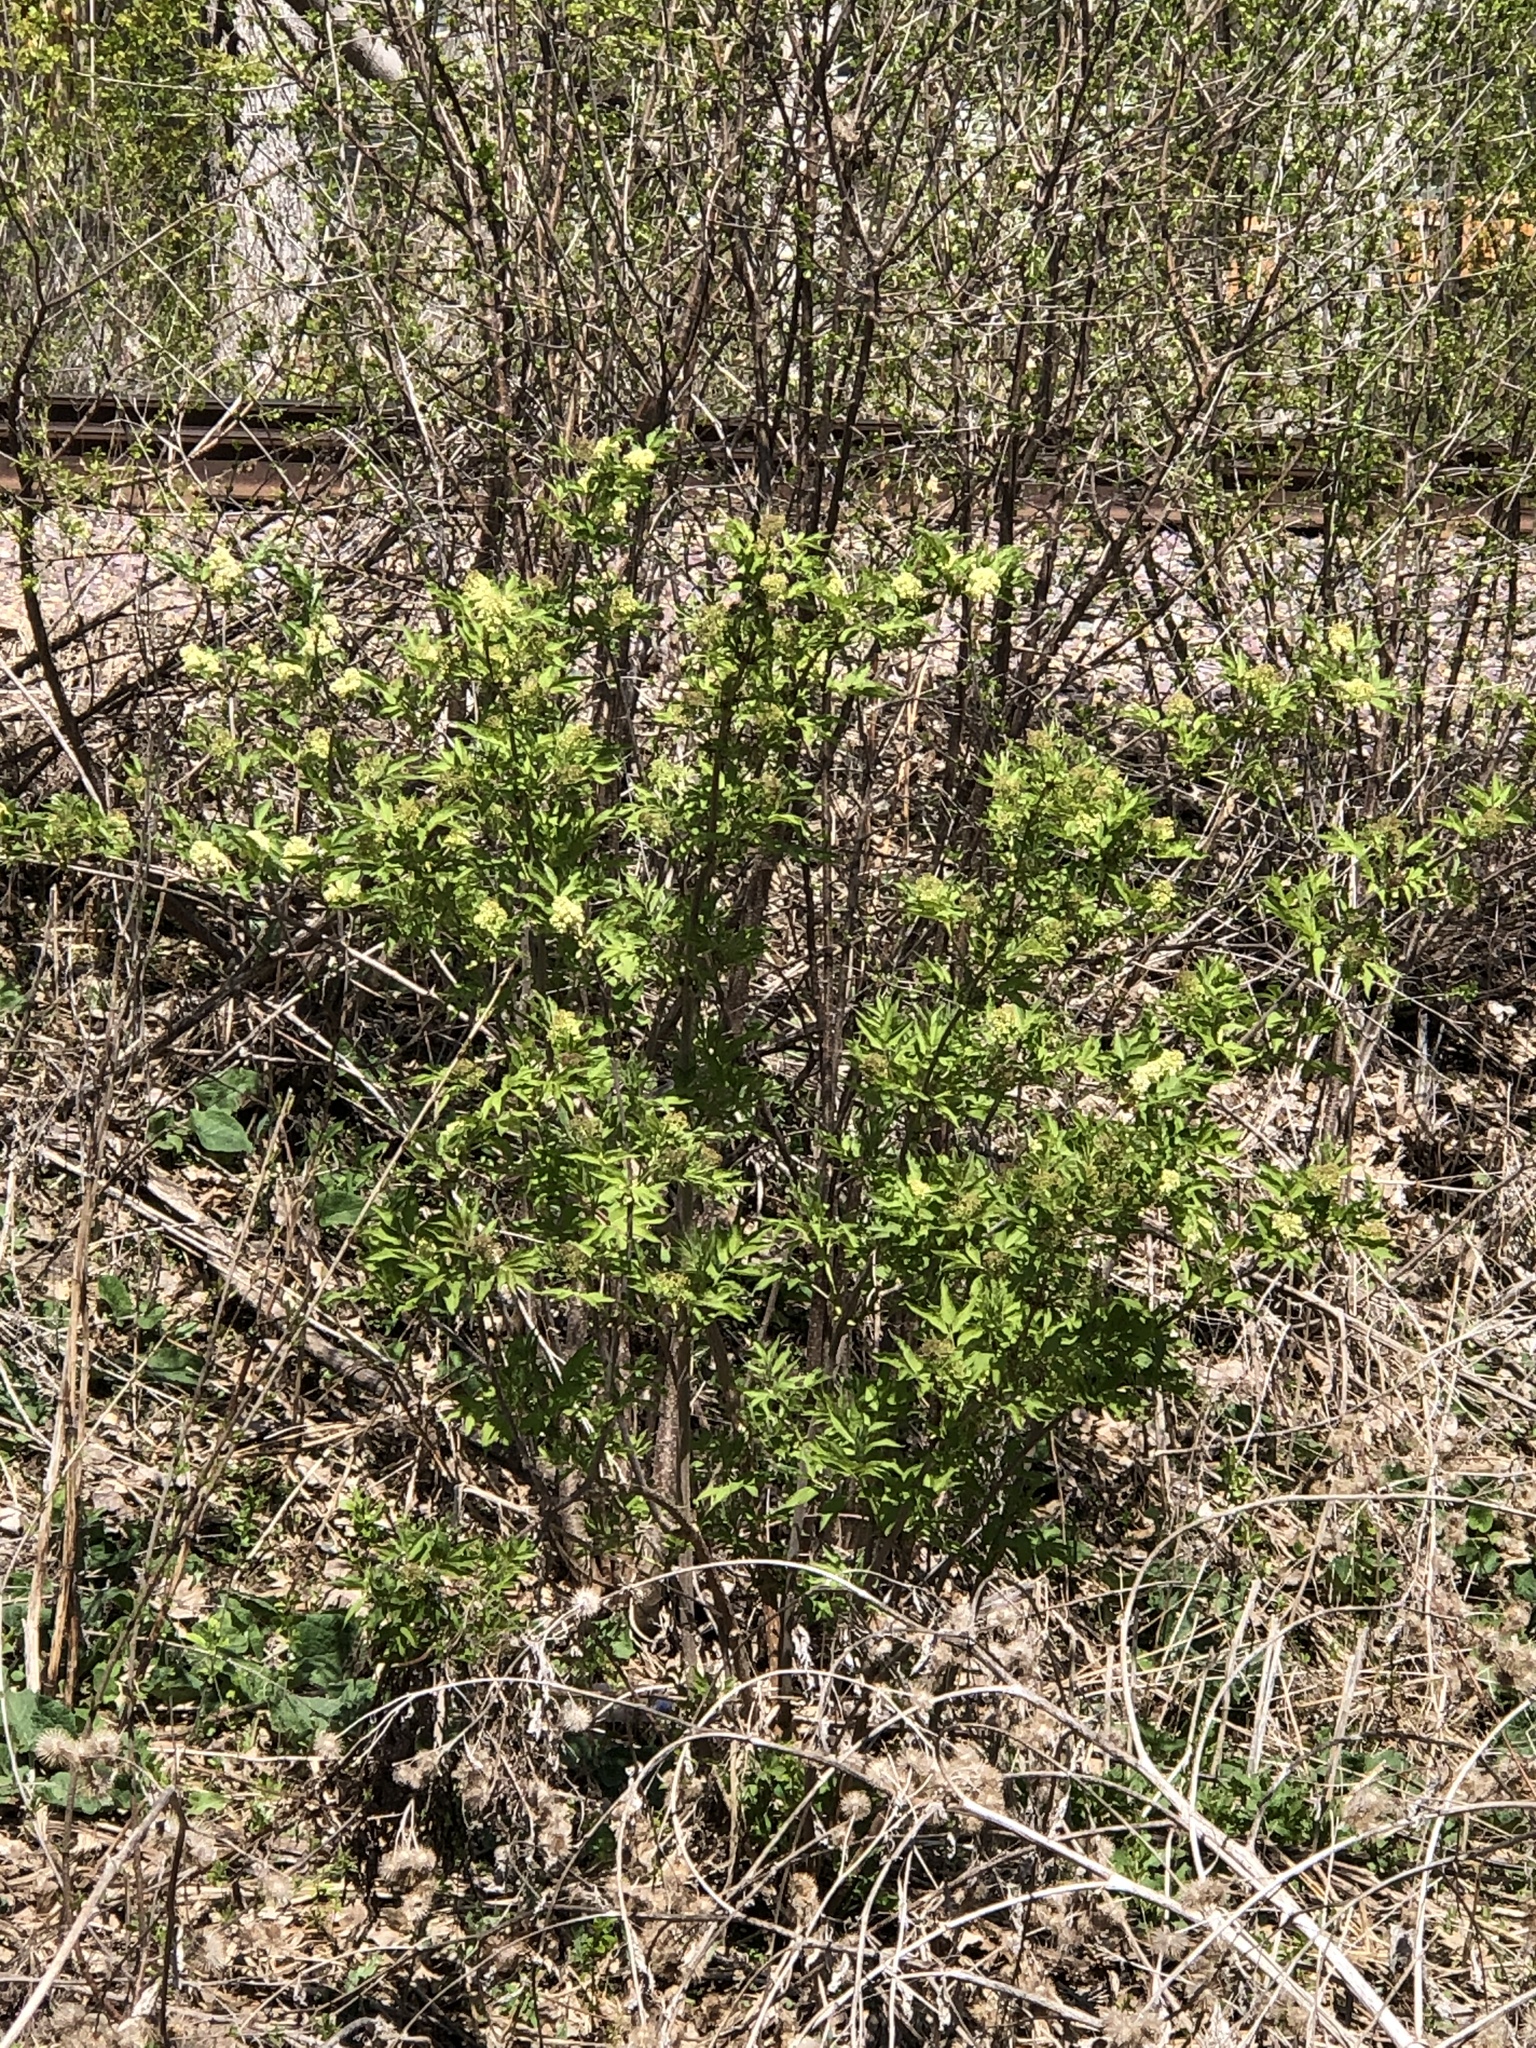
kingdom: Plantae
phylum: Tracheophyta
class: Magnoliopsida
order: Dipsacales
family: Viburnaceae
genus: Sambucus
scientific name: Sambucus racemosa
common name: Red-berried elder
